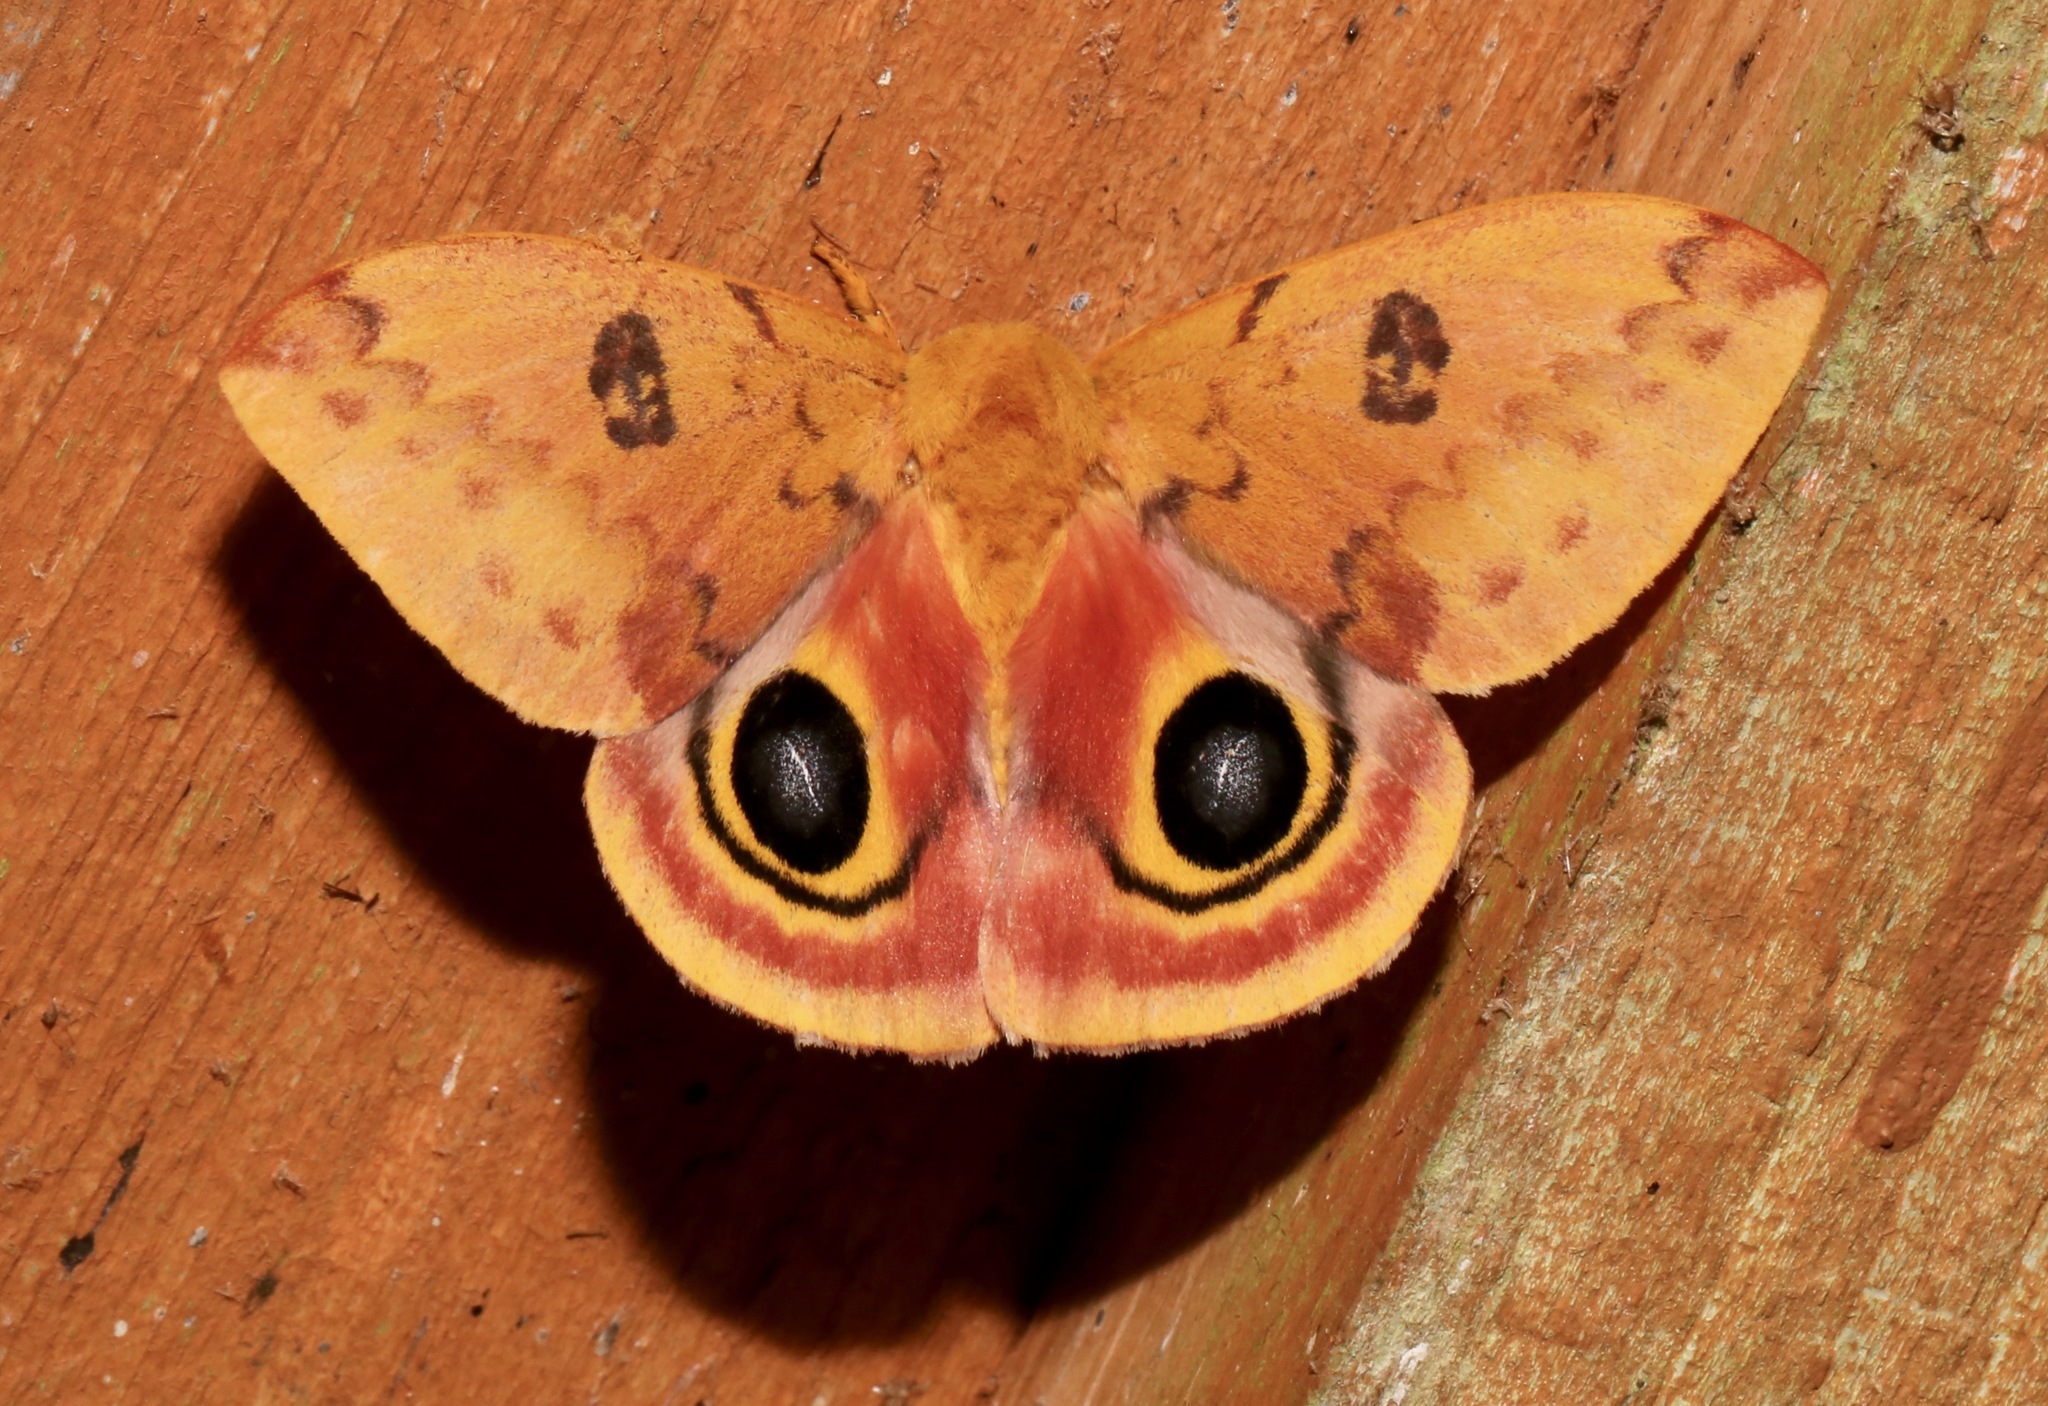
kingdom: Animalia
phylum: Arthropoda
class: Insecta
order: Lepidoptera
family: Saturniidae
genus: Automeris
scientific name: Automeris io
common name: Io moth
